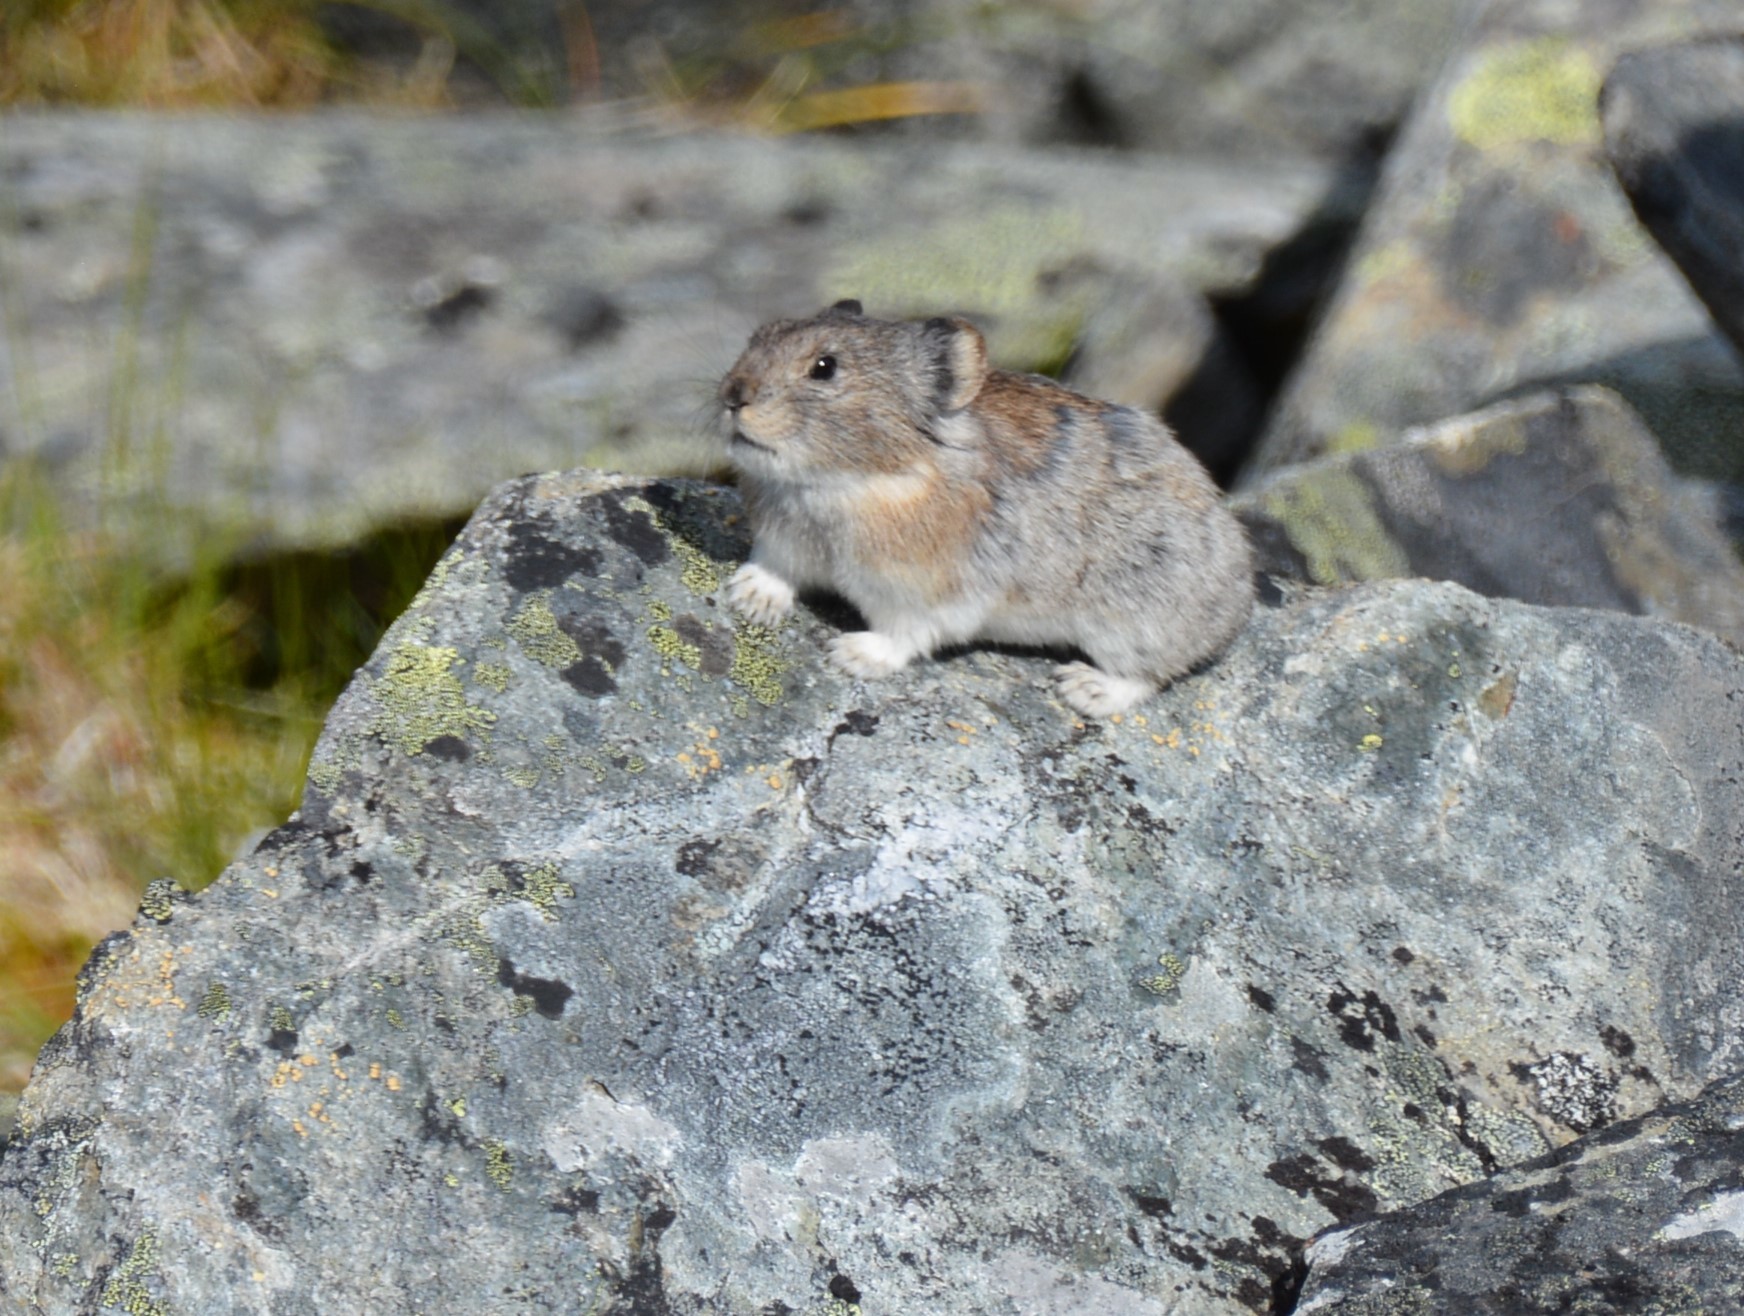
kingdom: Animalia
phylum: Chordata
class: Mammalia
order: Lagomorpha
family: Ochotonidae
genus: Ochotona
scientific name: Ochotona collaris
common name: Collared pika
